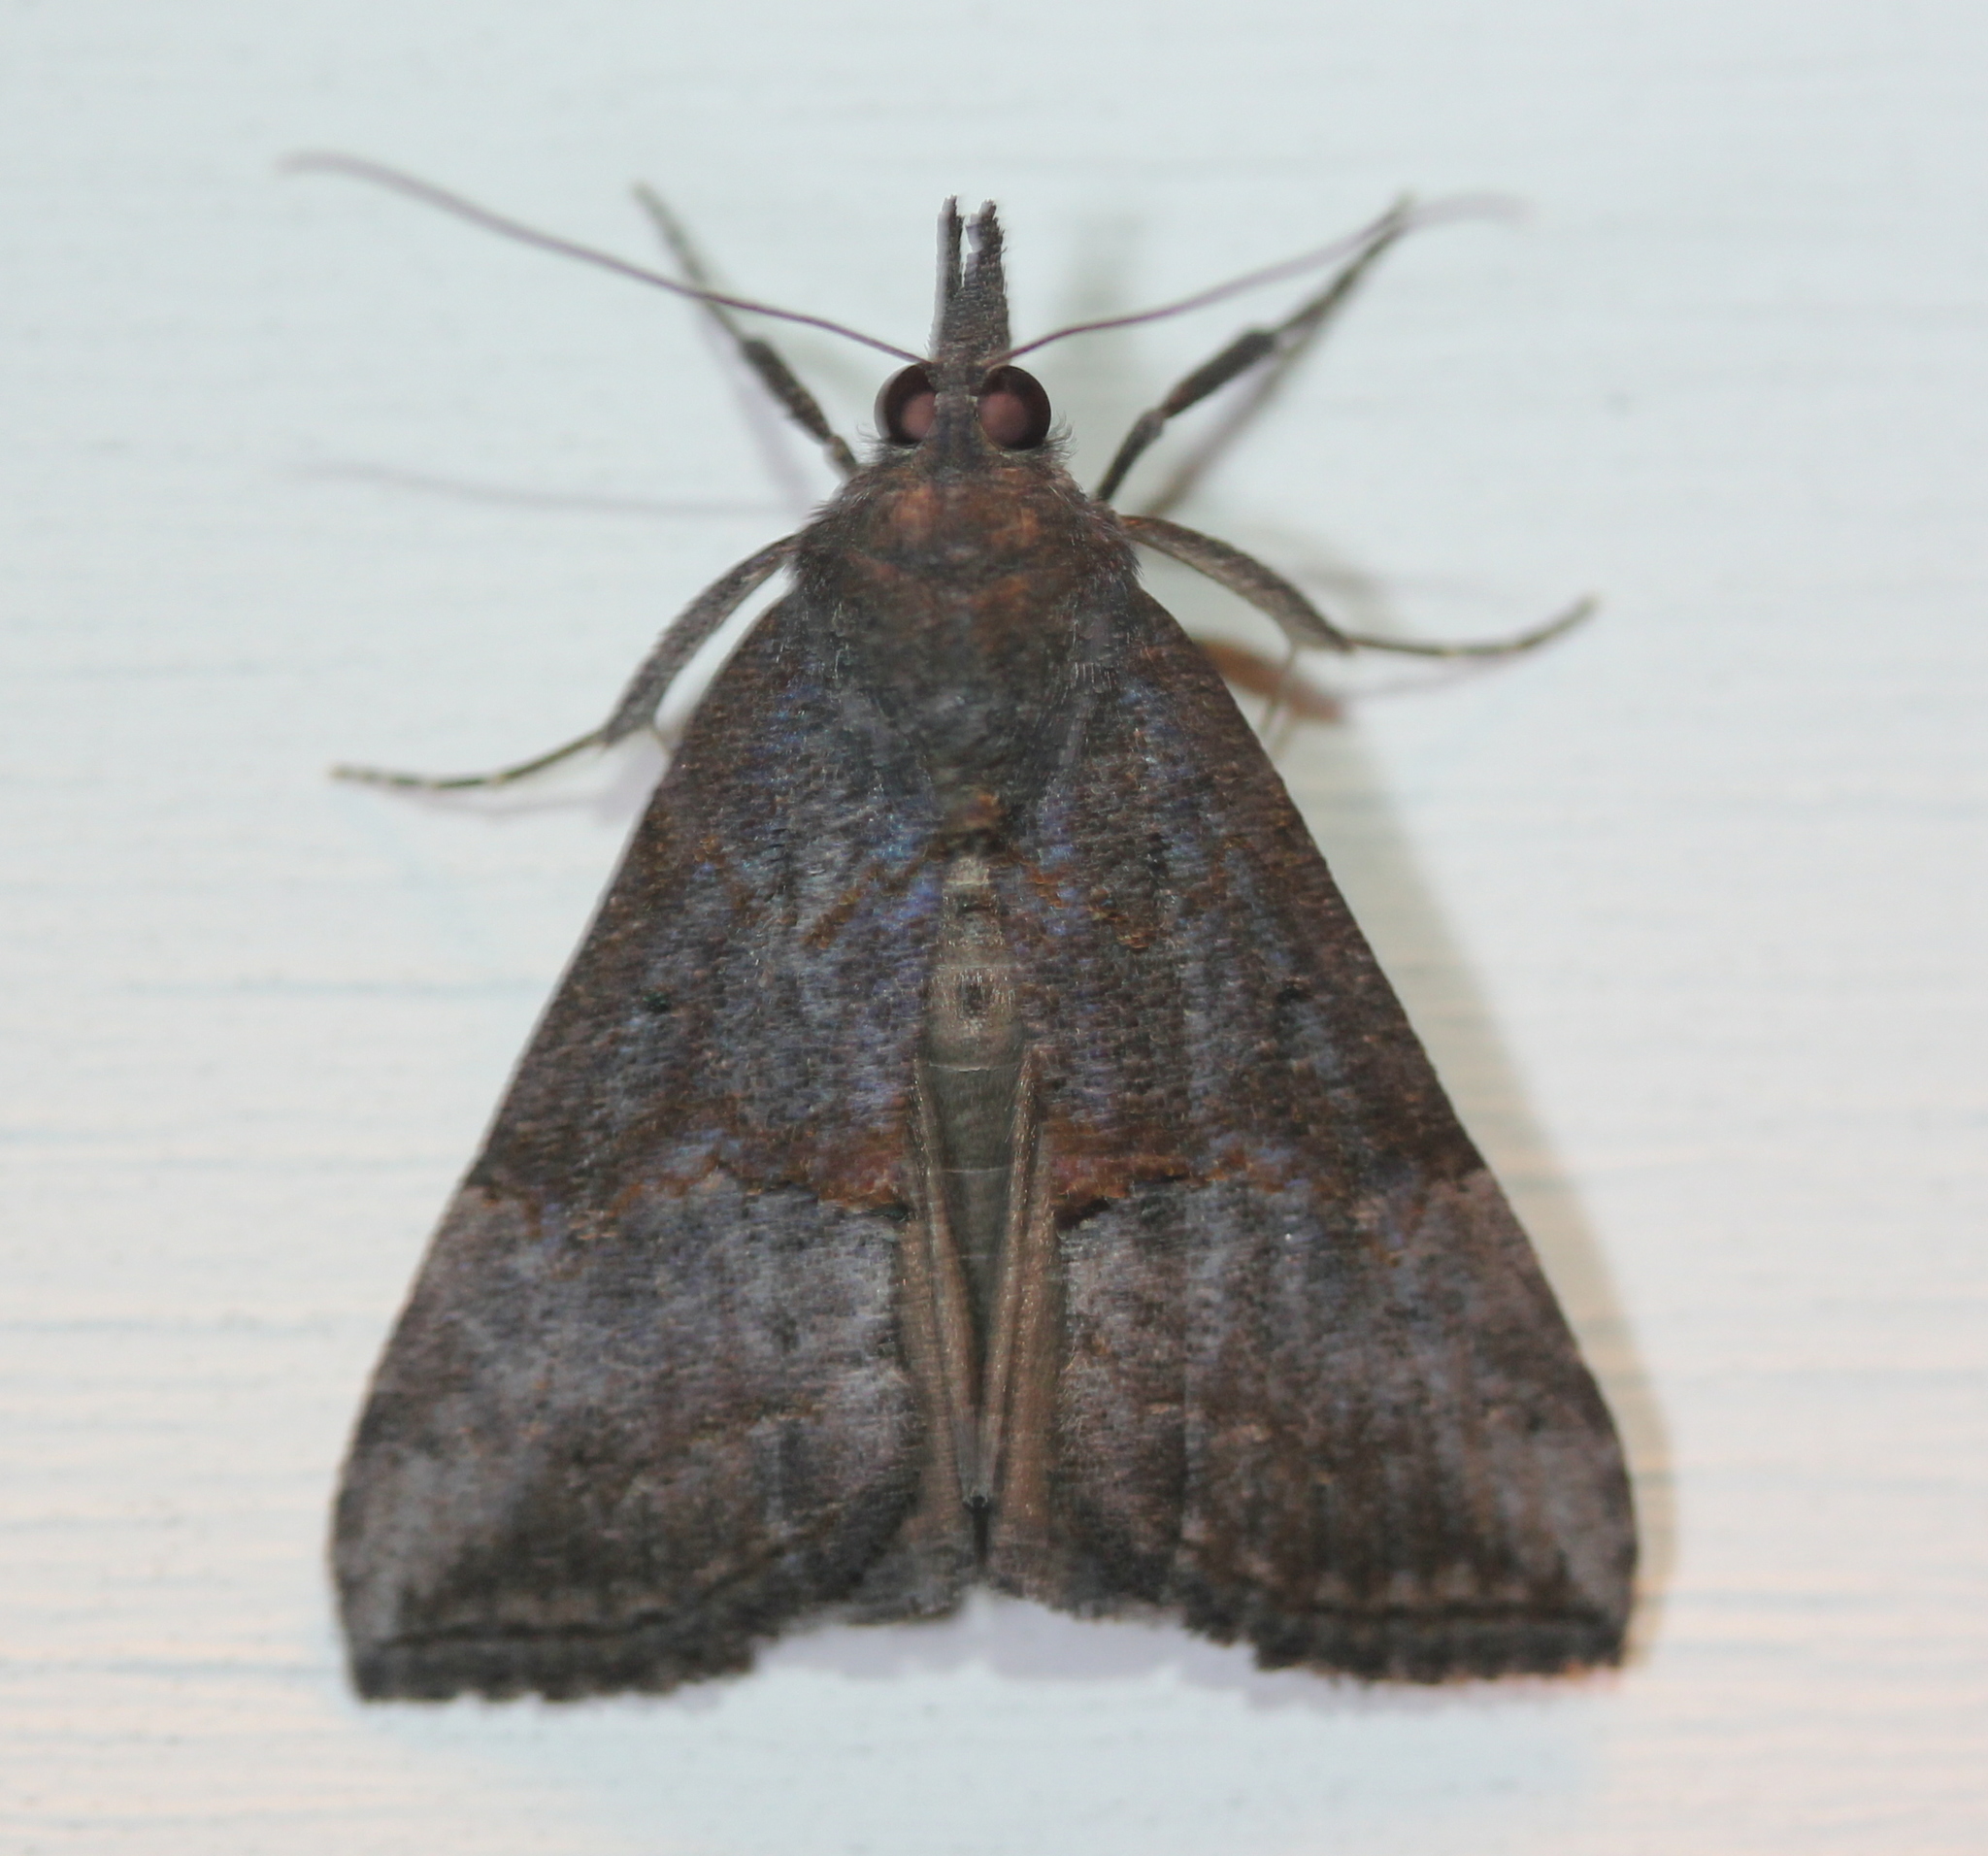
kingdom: Animalia
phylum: Arthropoda
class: Insecta
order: Lepidoptera
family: Erebidae
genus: Hypena
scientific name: Hypena scabra
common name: Green cloverworm
